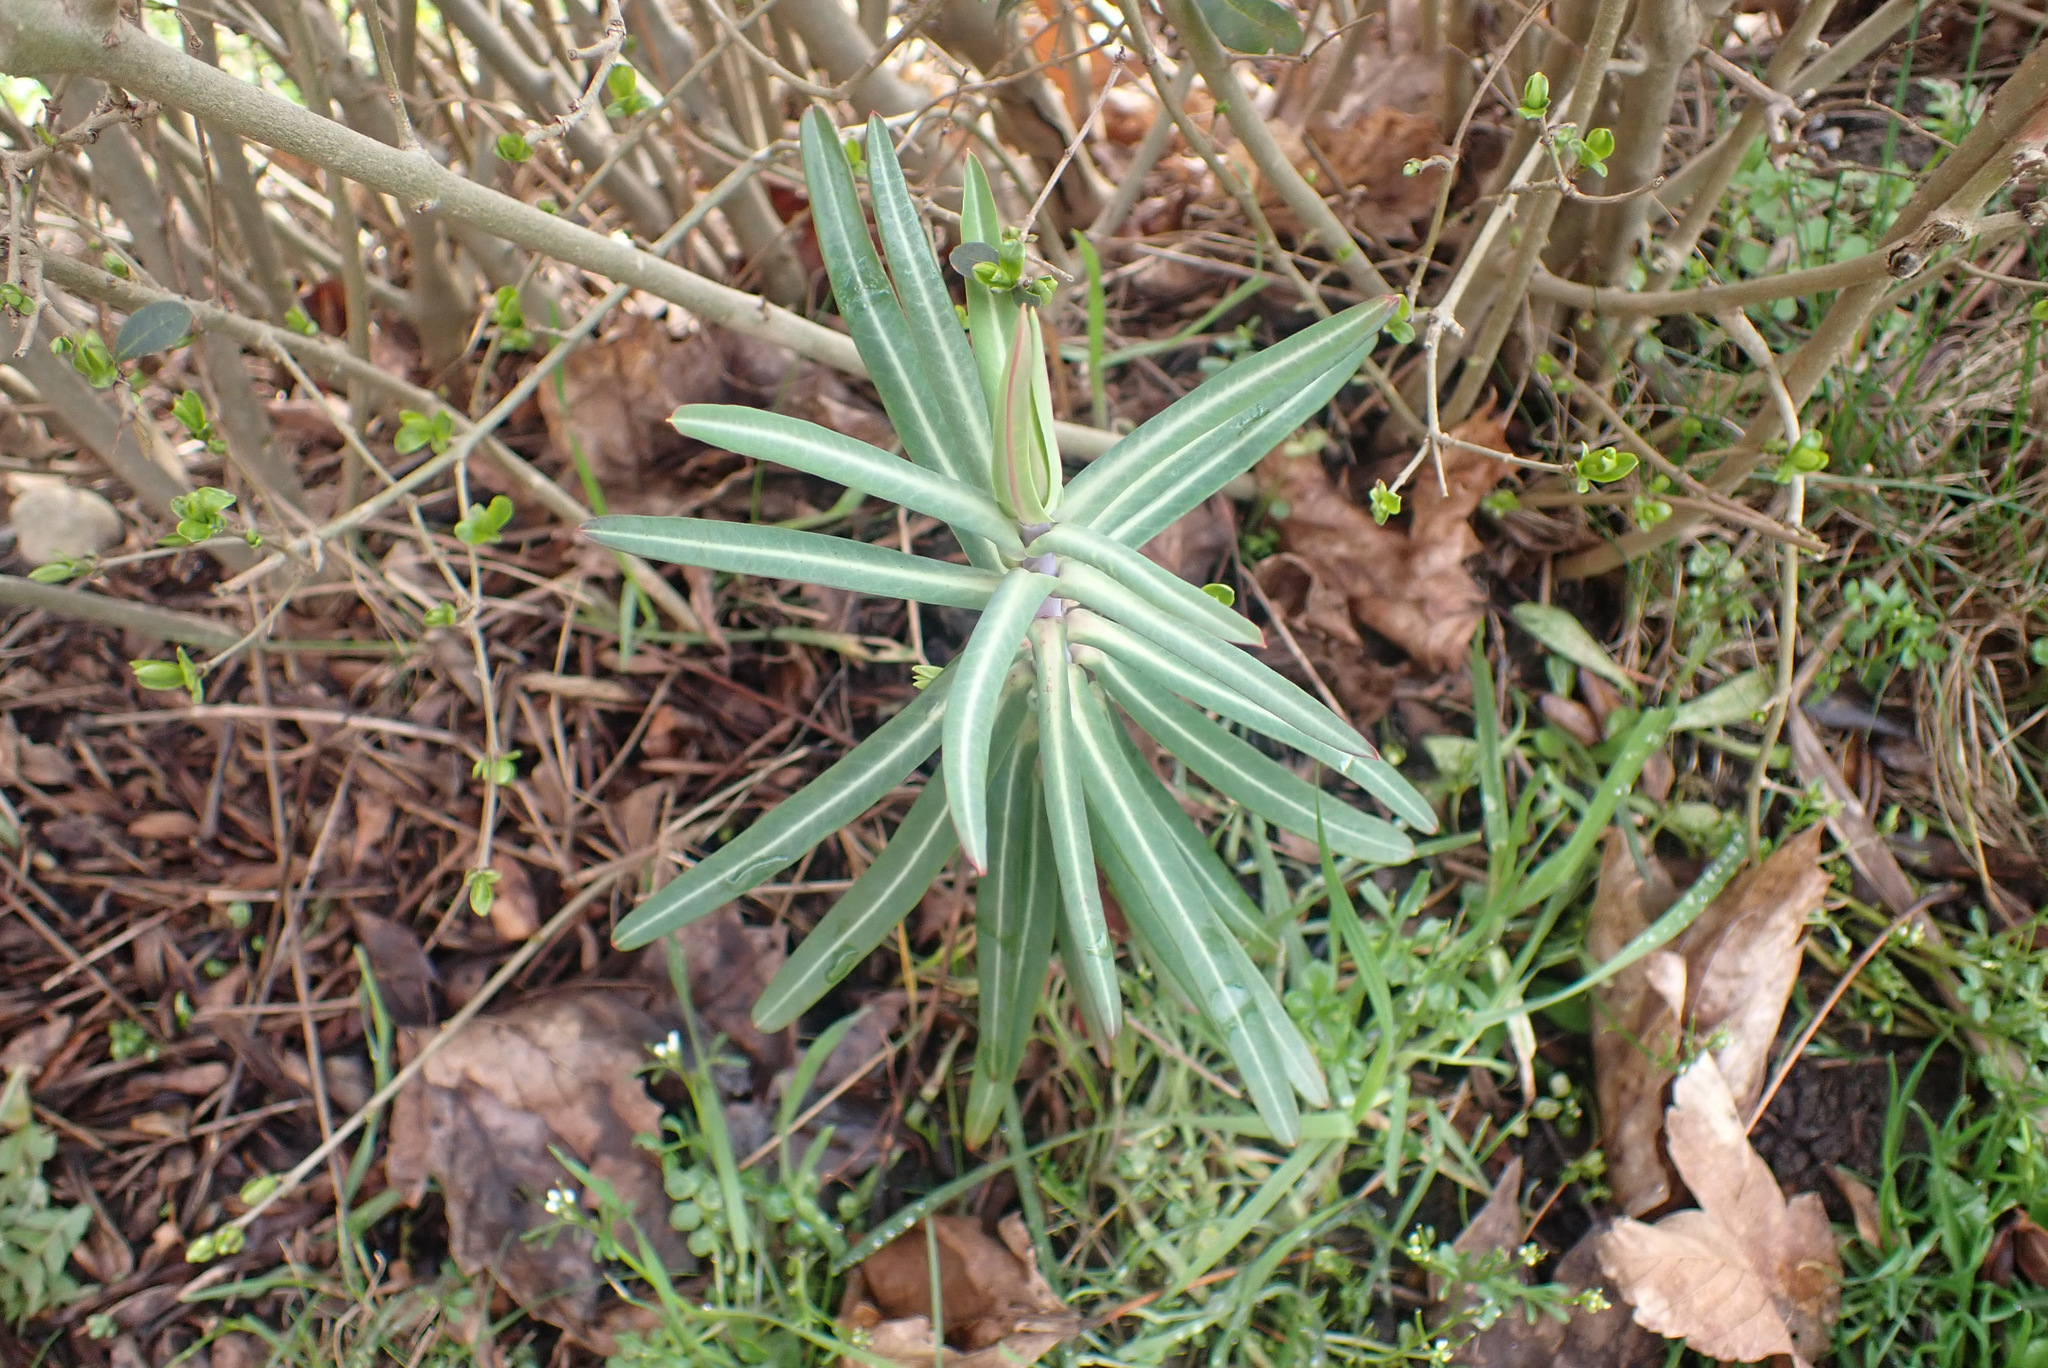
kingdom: Plantae
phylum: Tracheophyta
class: Magnoliopsida
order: Malpighiales
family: Euphorbiaceae
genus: Euphorbia
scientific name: Euphorbia lathyris
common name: Caper spurge
